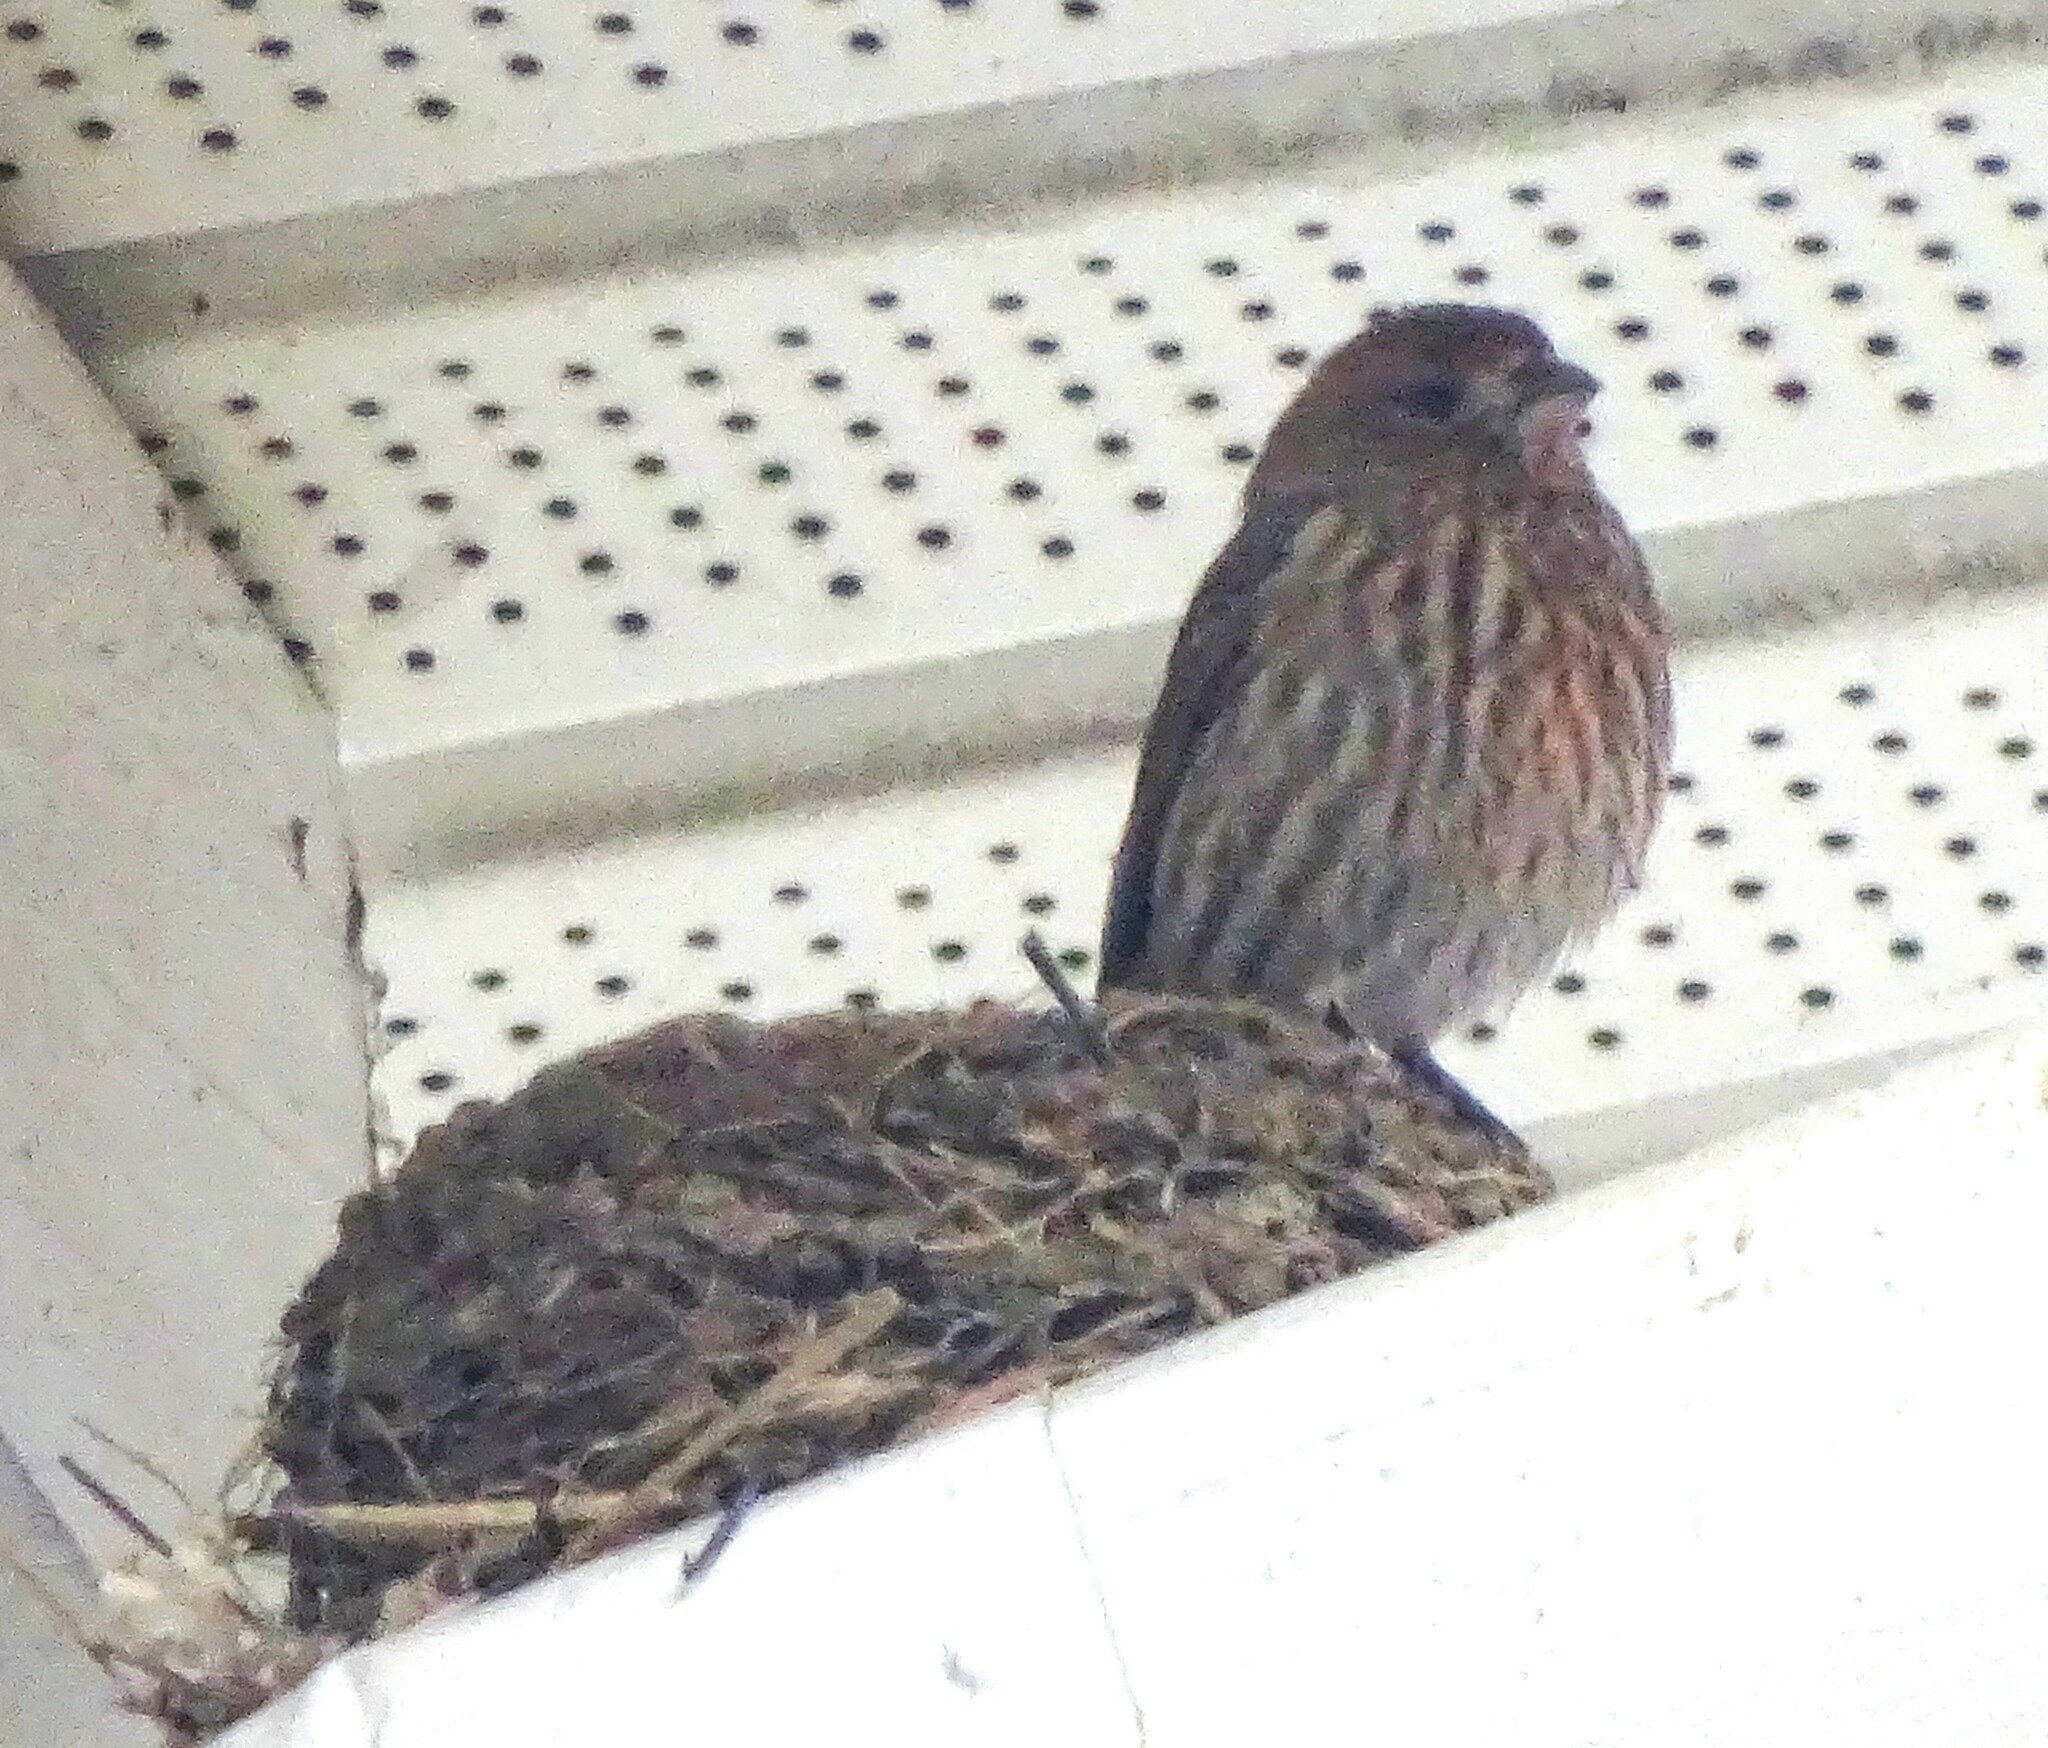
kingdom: Animalia
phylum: Chordata
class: Aves
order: Passeriformes
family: Fringillidae
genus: Haemorhous
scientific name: Haemorhous mexicanus
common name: House finch
